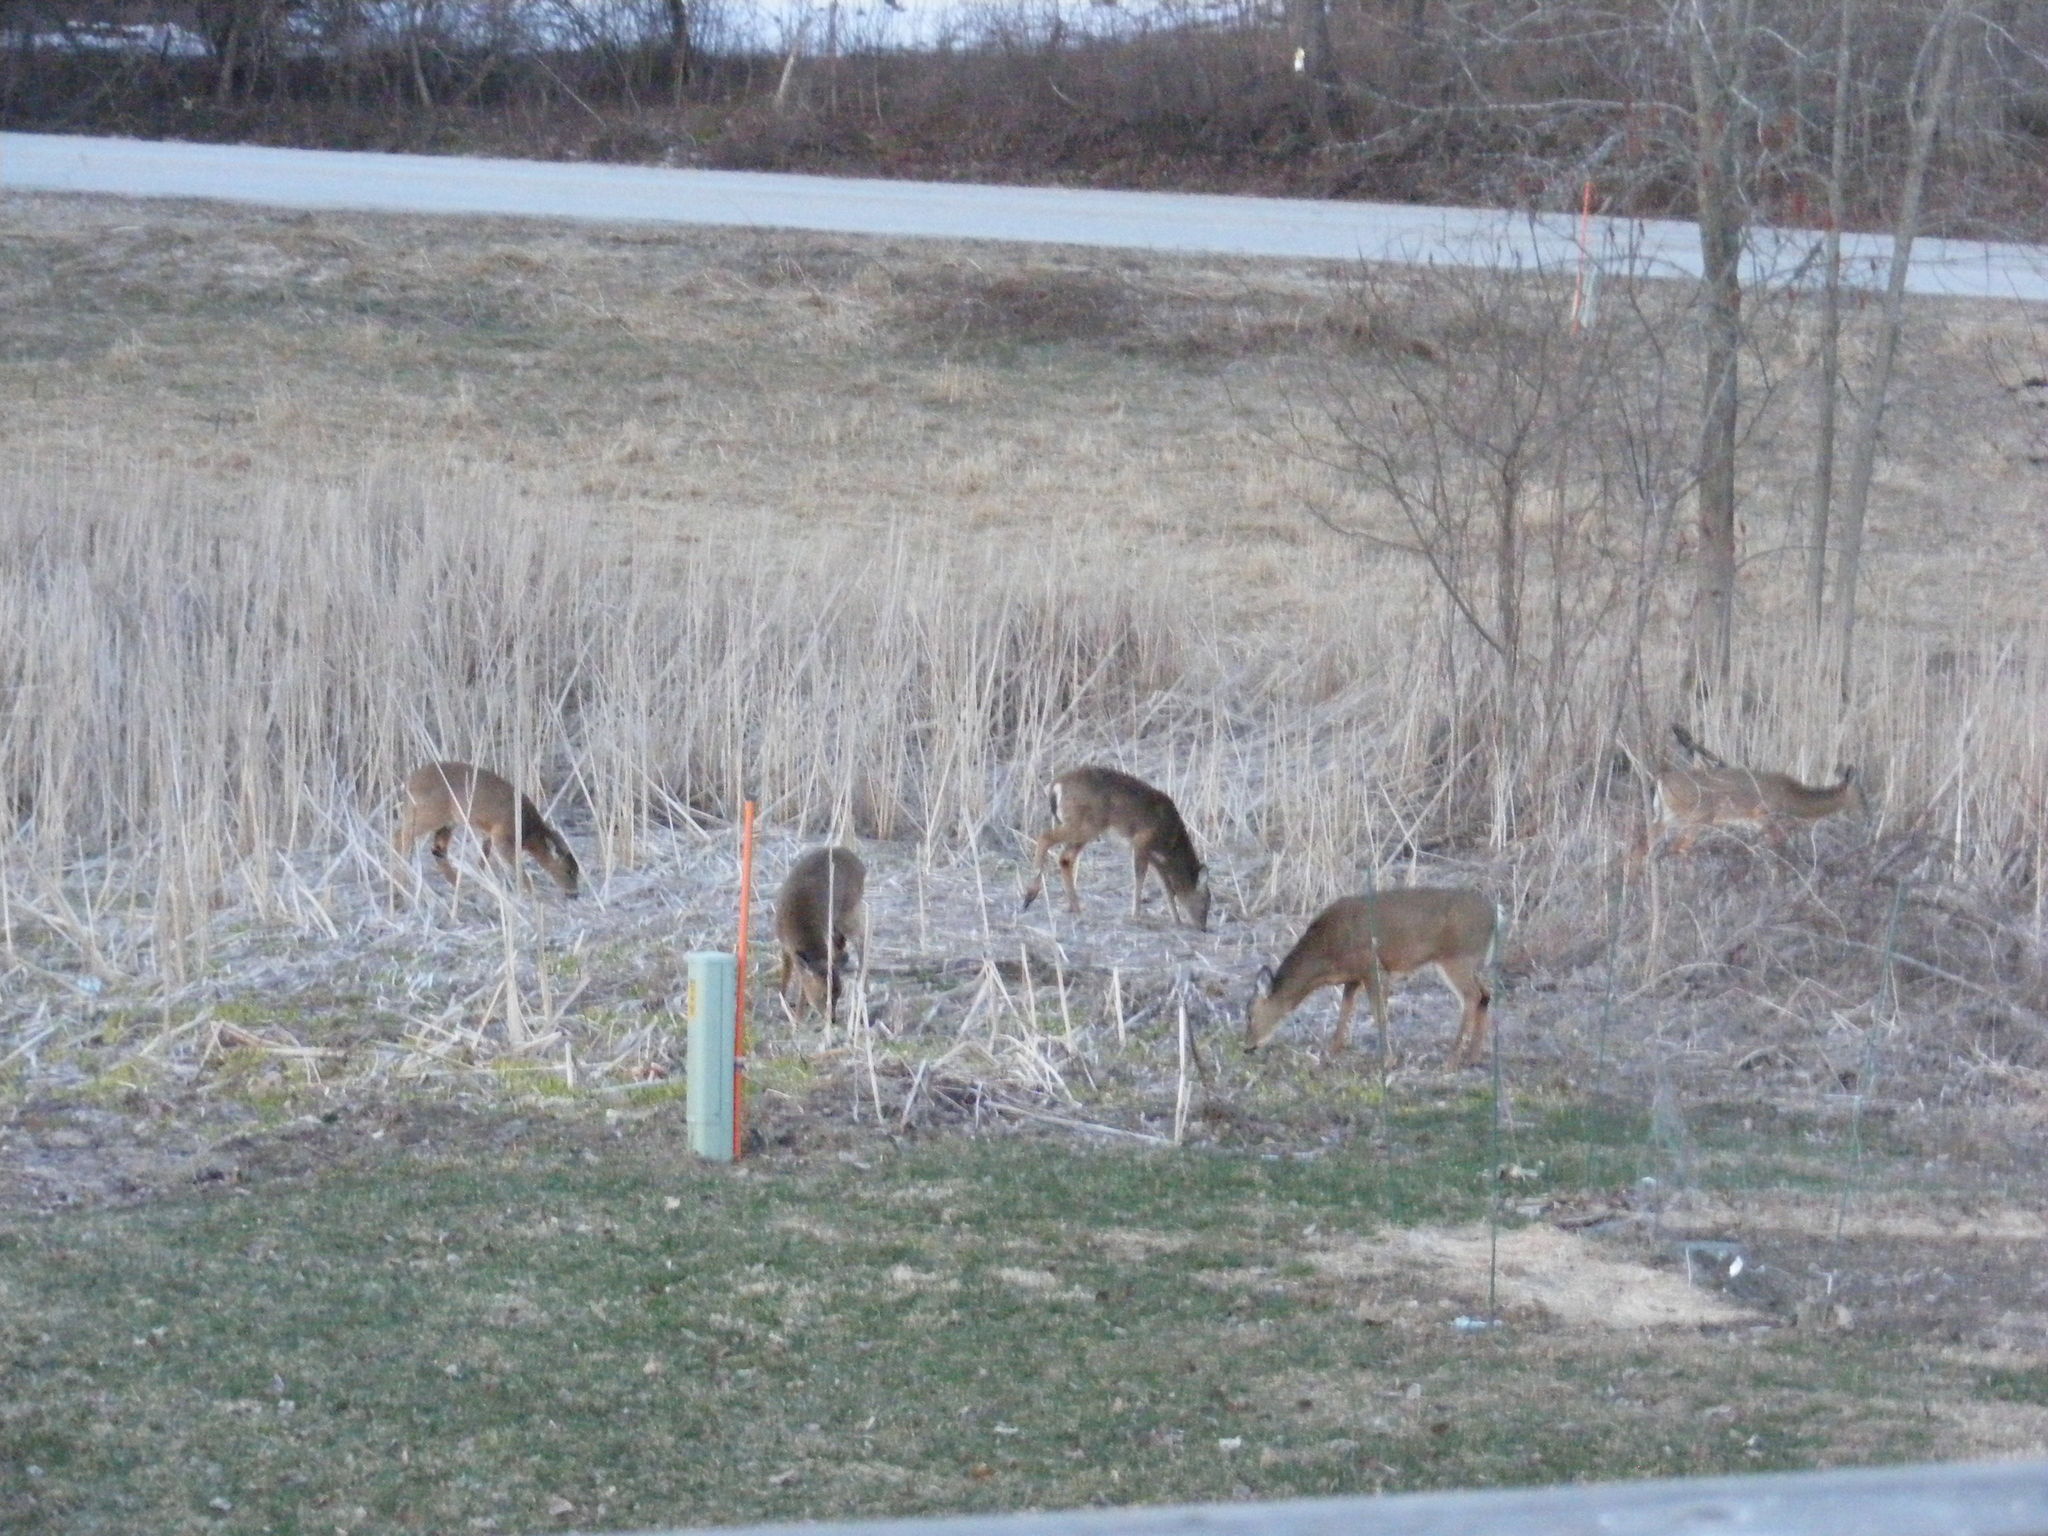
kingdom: Animalia
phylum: Chordata
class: Mammalia
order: Artiodactyla
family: Cervidae
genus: Odocoileus
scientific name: Odocoileus virginianus
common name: White-tailed deer
